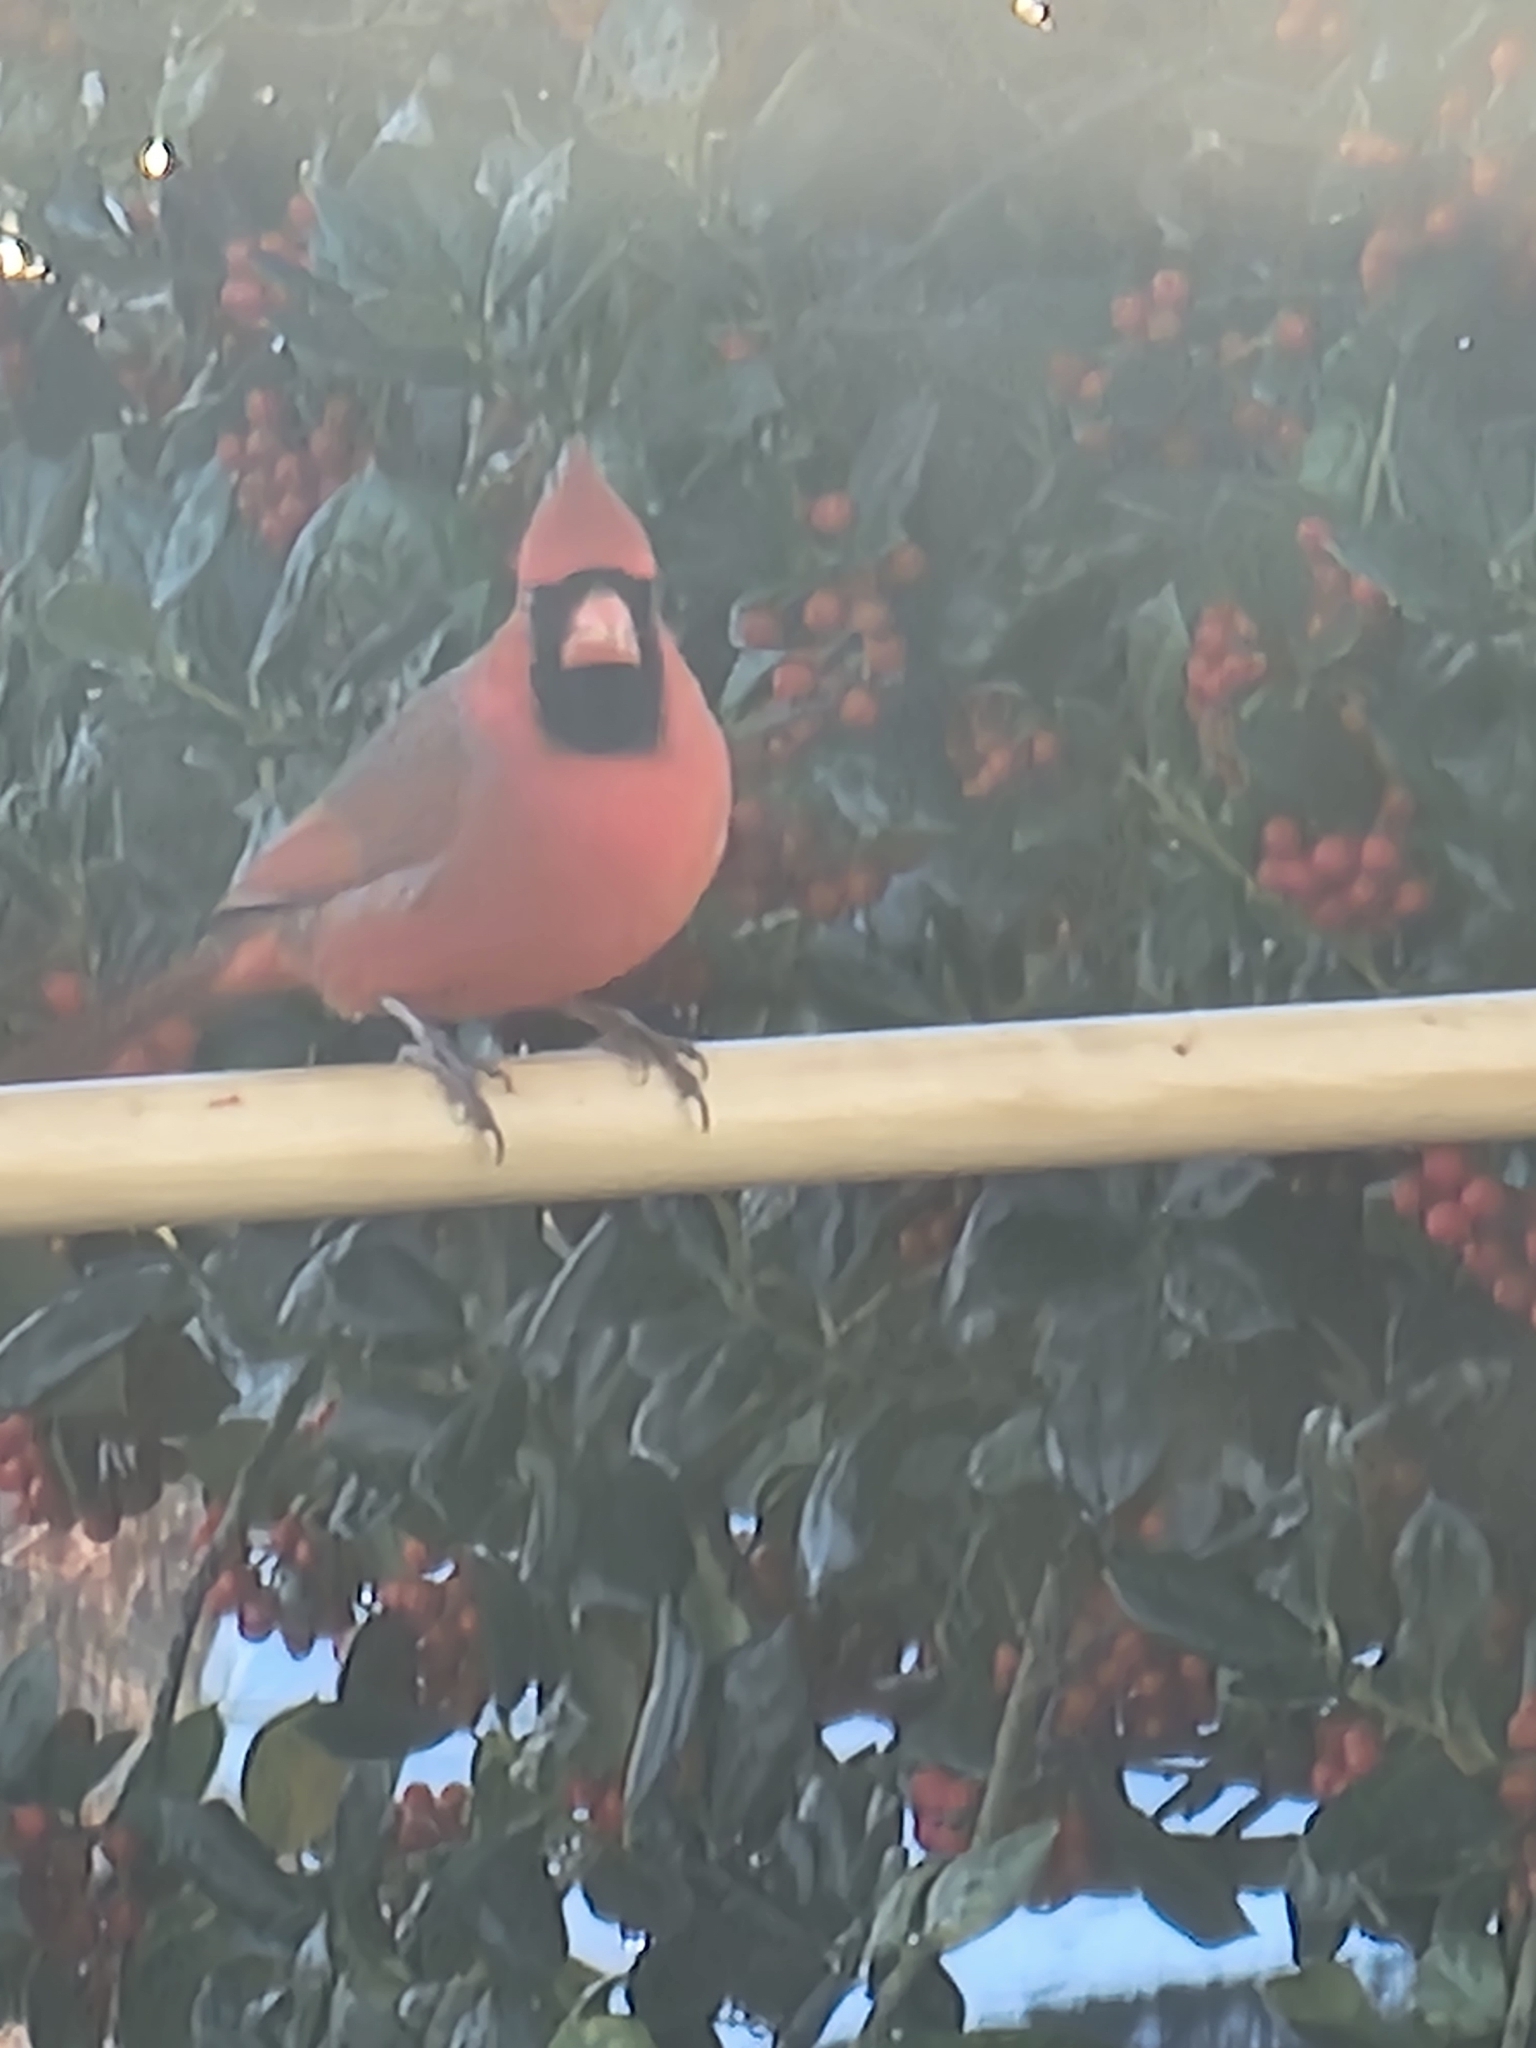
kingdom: Animalia
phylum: Chordata
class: Aves
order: Passeriformes
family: Cardinalidae
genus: Cardinalis
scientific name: Cardinalis cardinalis
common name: Northern cardinal
